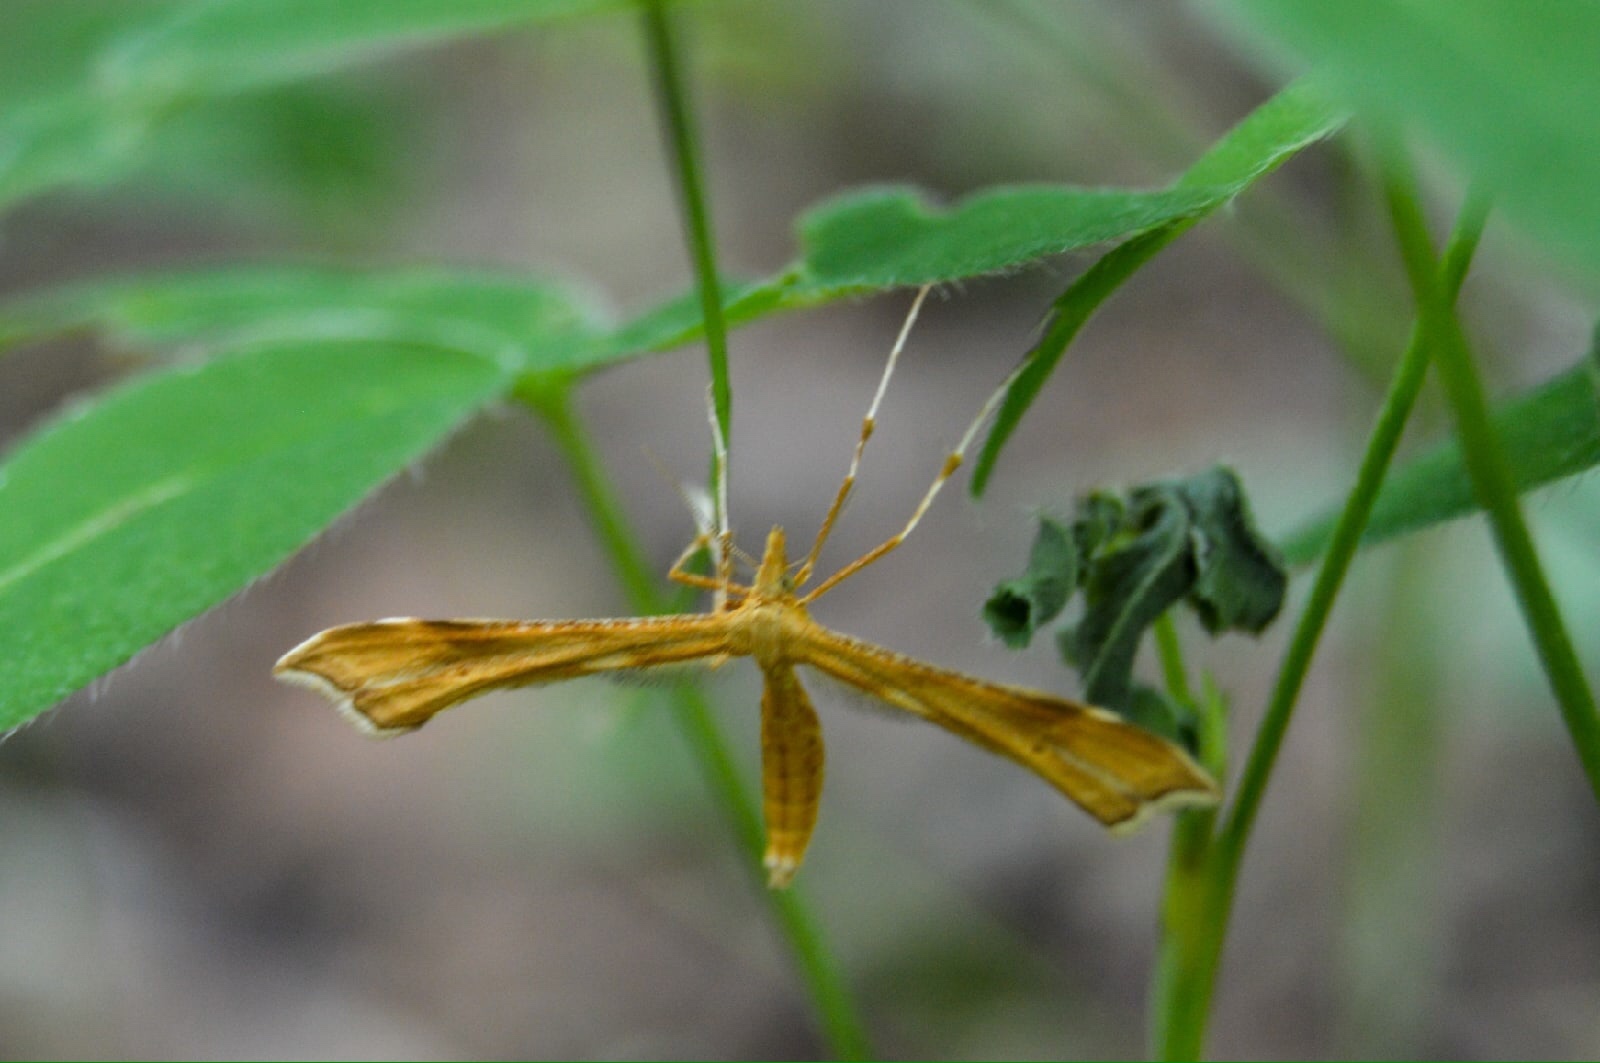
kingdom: Animalia
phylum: Arthropoda
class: Insecta
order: Lepidoptera
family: Pterophoridae
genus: Gillmeria
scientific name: Gillmeria pallidactyla
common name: Yarrow plume
